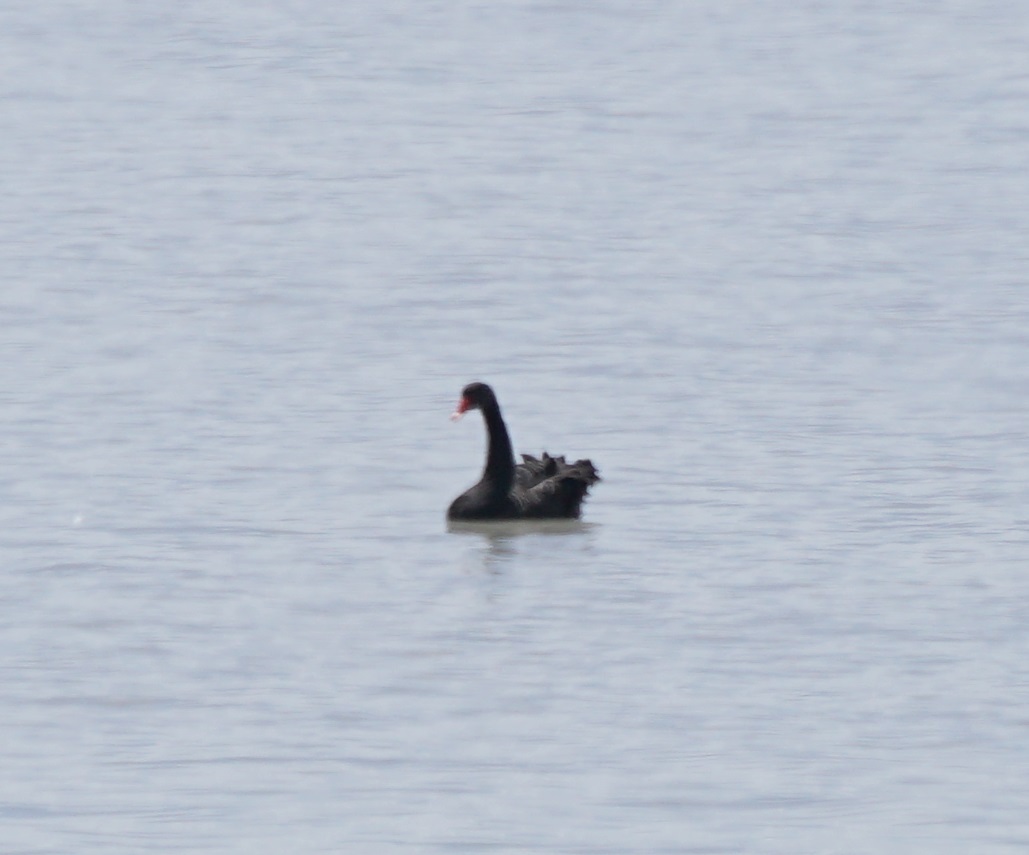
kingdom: Animalia
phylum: Chordata
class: Aves
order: Anseriformes
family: Anatidae
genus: Cygnus
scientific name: Cygnus atratus
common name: Black swan
